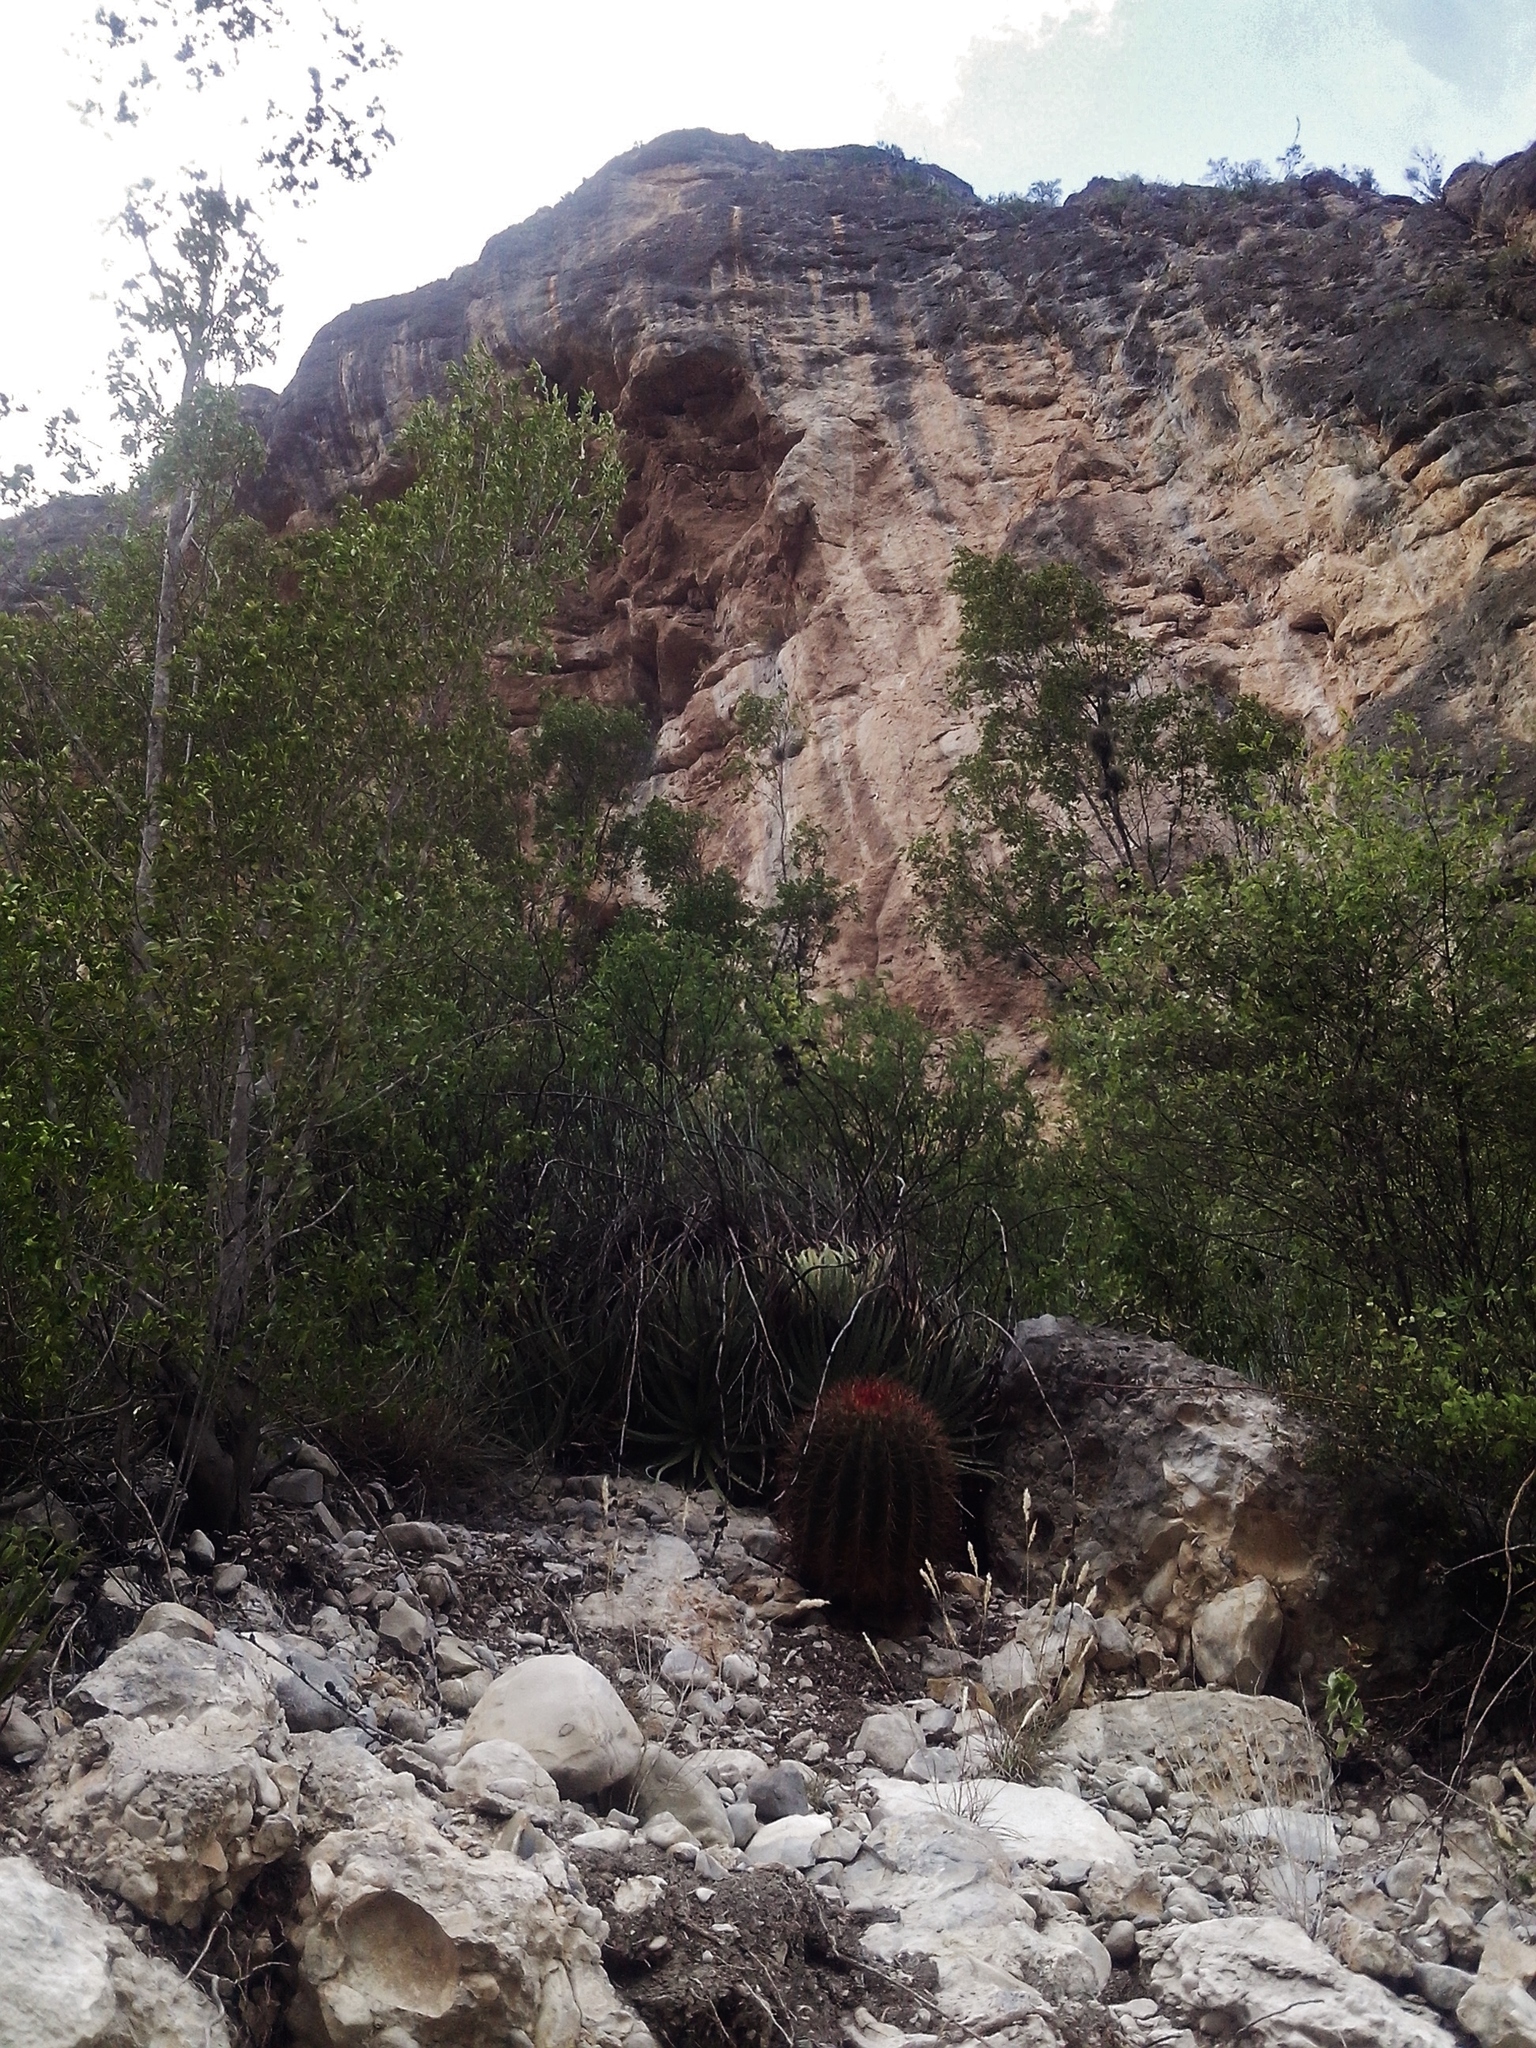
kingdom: Plantae
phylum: Tracheophyta
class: Magnoliopsida
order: Caryophyllales
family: Cactaceae
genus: Ferocactus
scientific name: Ferocactus pilosus
